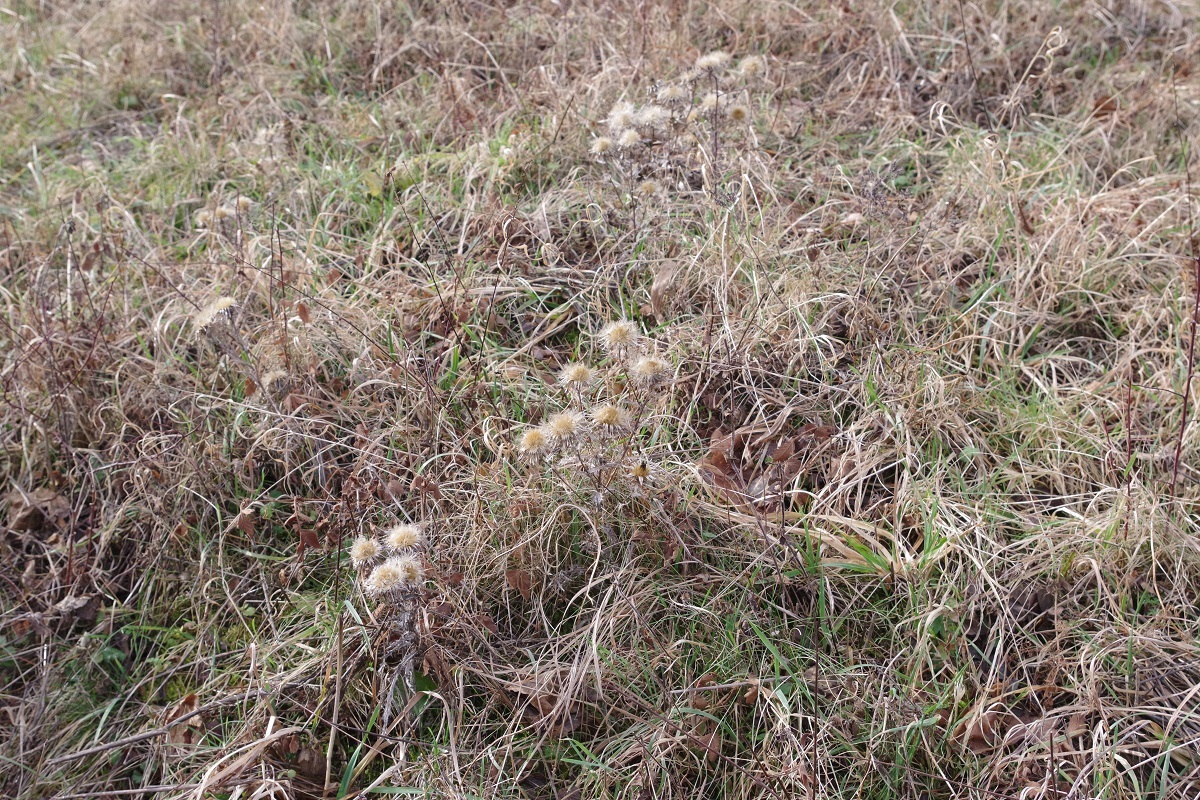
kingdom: Plantae
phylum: Tracheophyta
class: Magnoliopsida
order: Asterales
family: Asteraceae
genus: Carlina
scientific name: Carlina vulgaris
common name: Carline thistle
